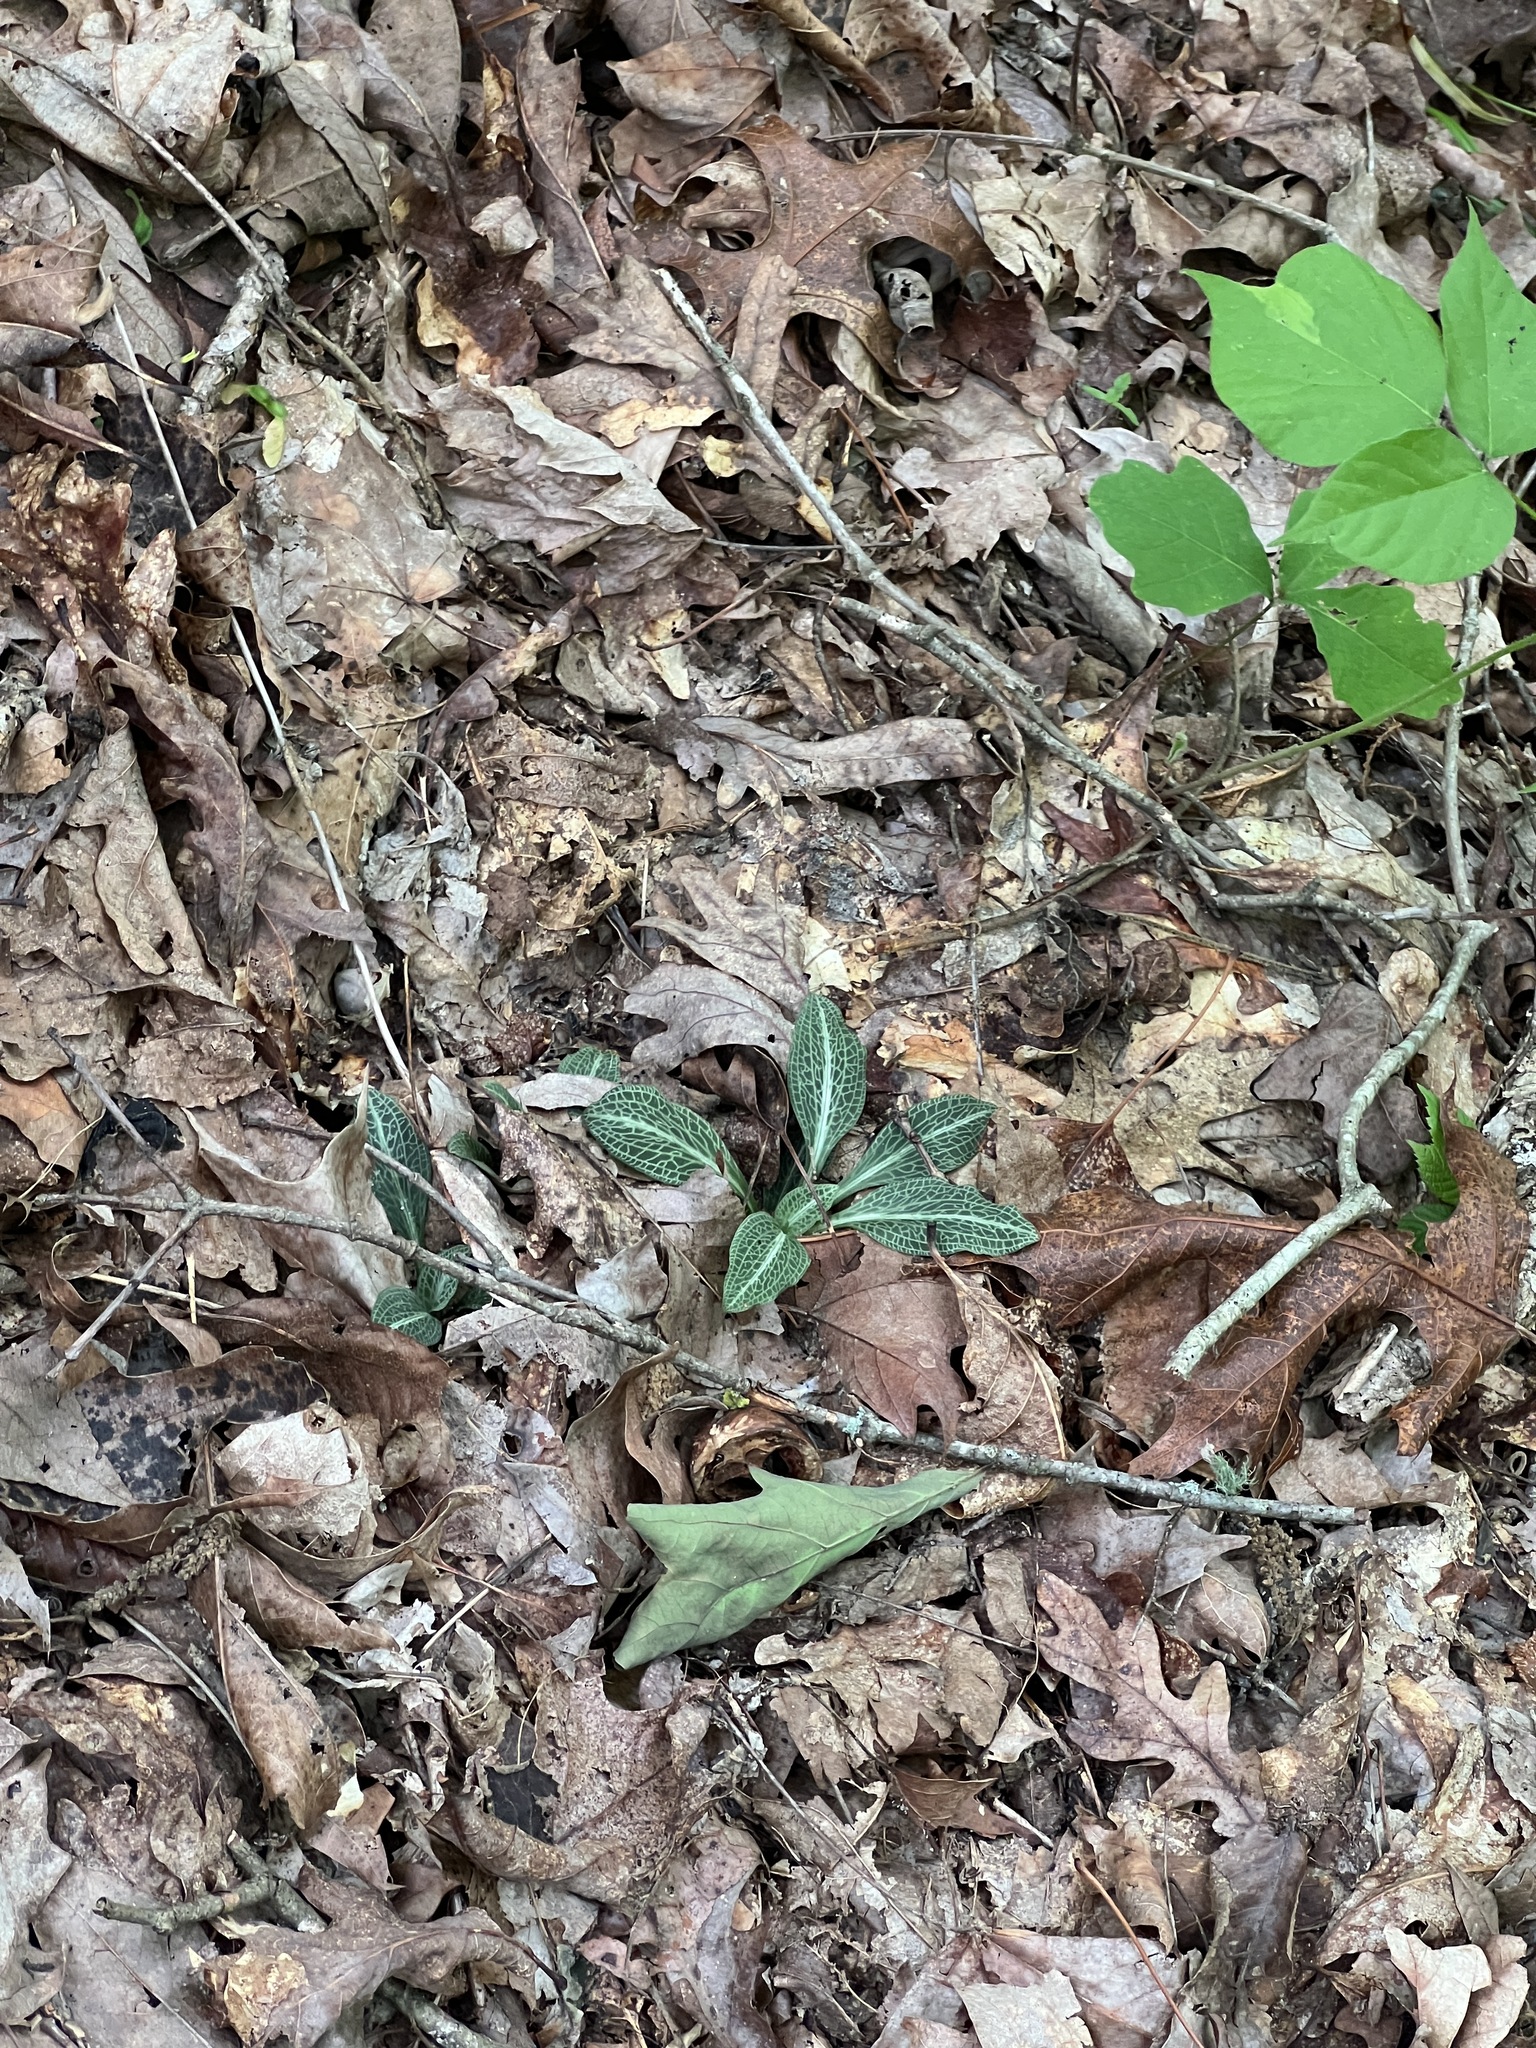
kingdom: Plantae
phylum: Tracheophyta
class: Liliopsida
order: Asparagales
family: Orchidaceae
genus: Goodyera
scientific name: Goodyera pubescens
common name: Downy rattlesnake-plantain
